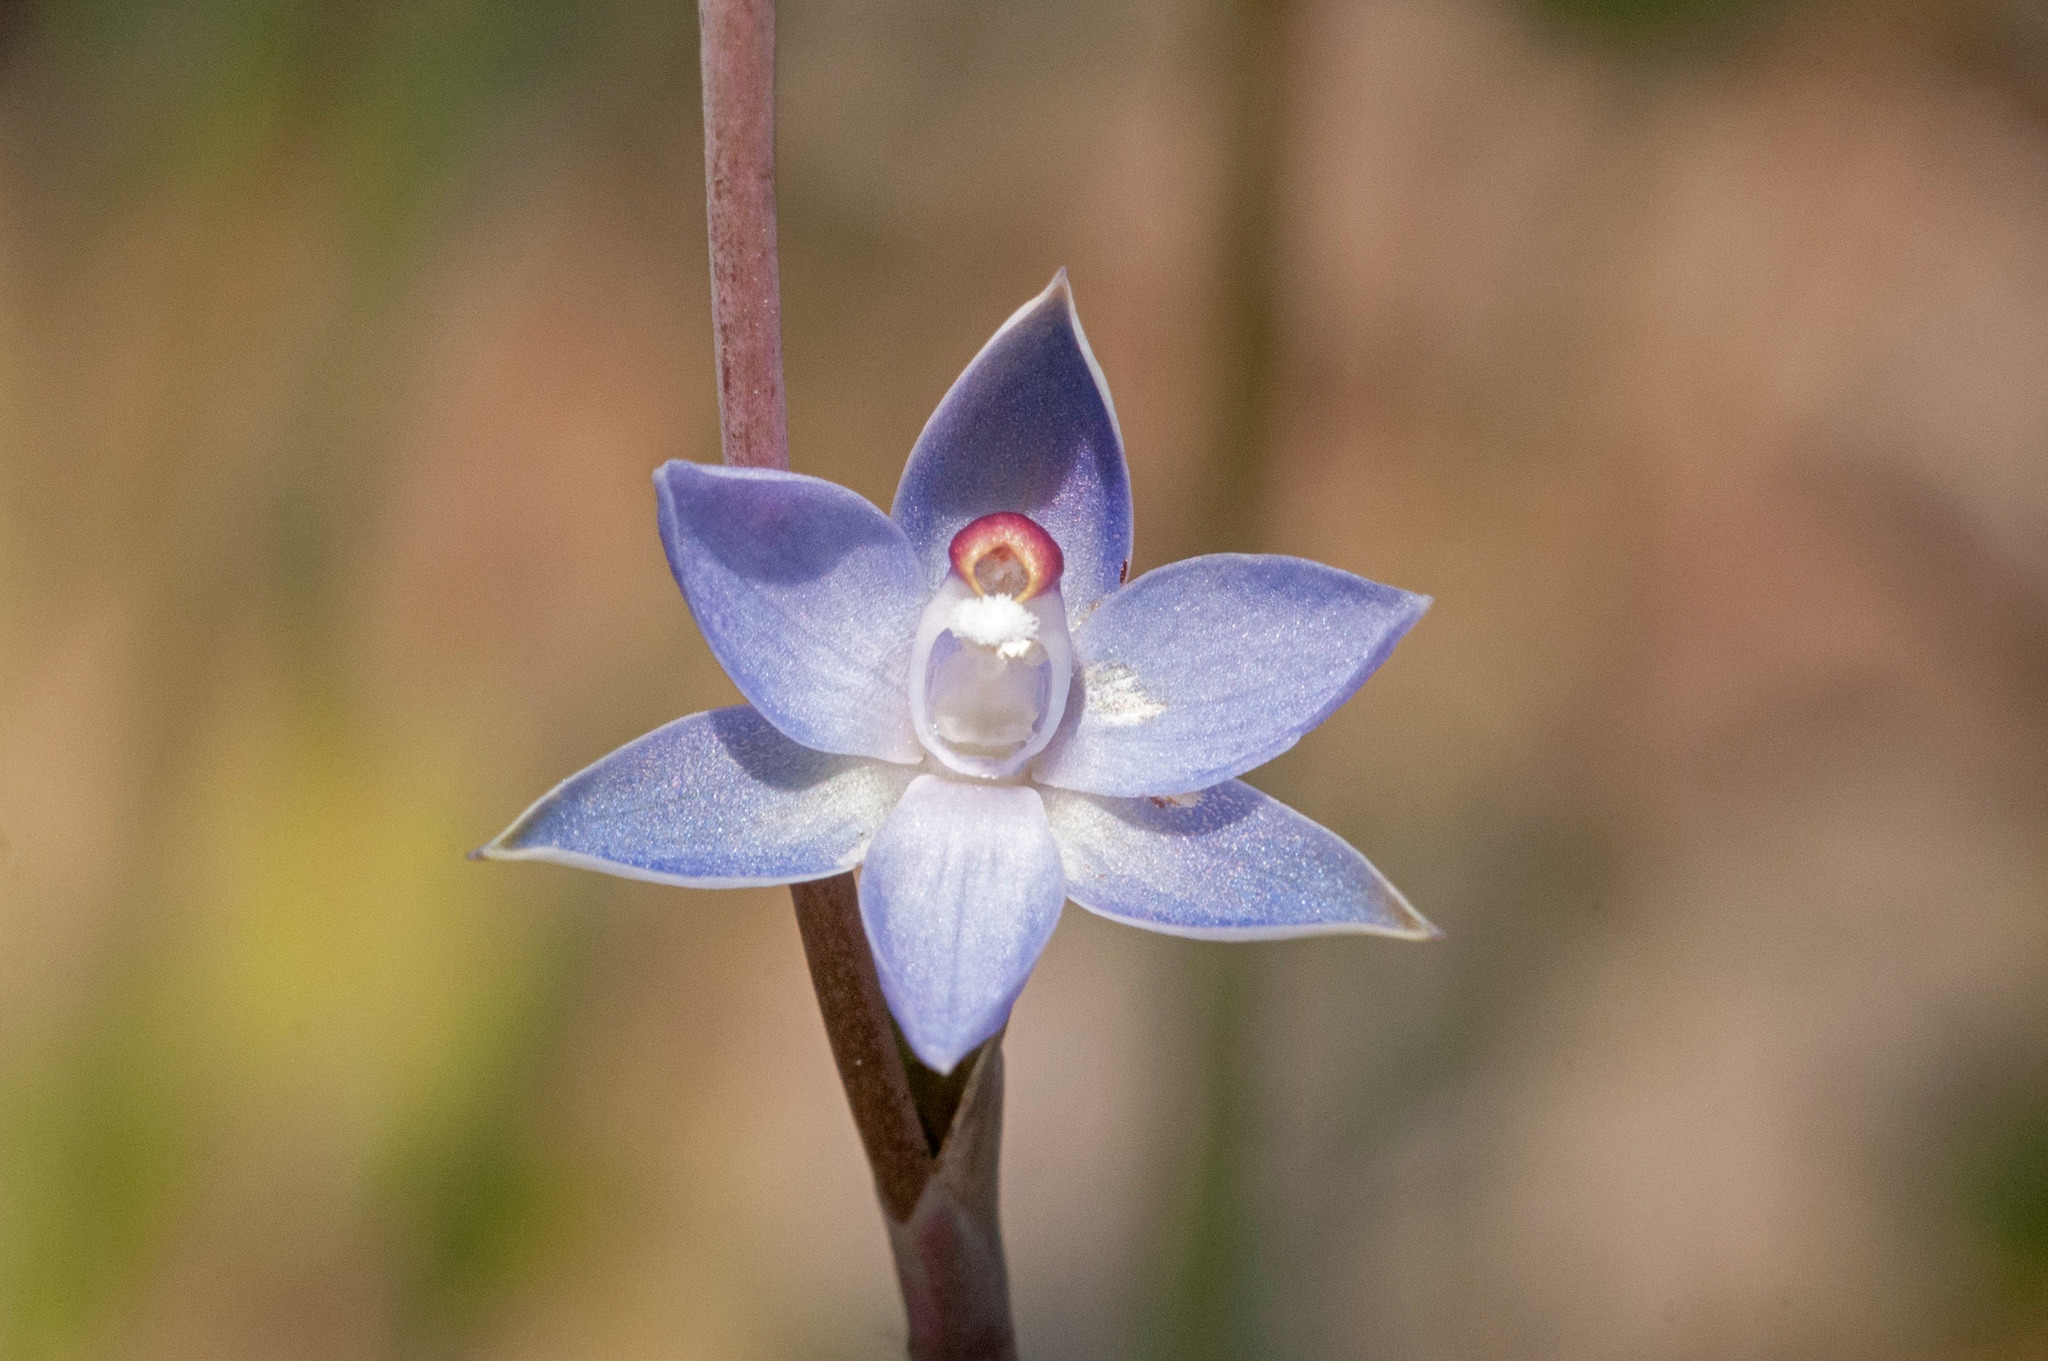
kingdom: Plantae
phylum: Tracheophyta
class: Liliopsida
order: Asparagales
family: Orchidaceae
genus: Thelymitra
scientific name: Thelymitra brevifolia
